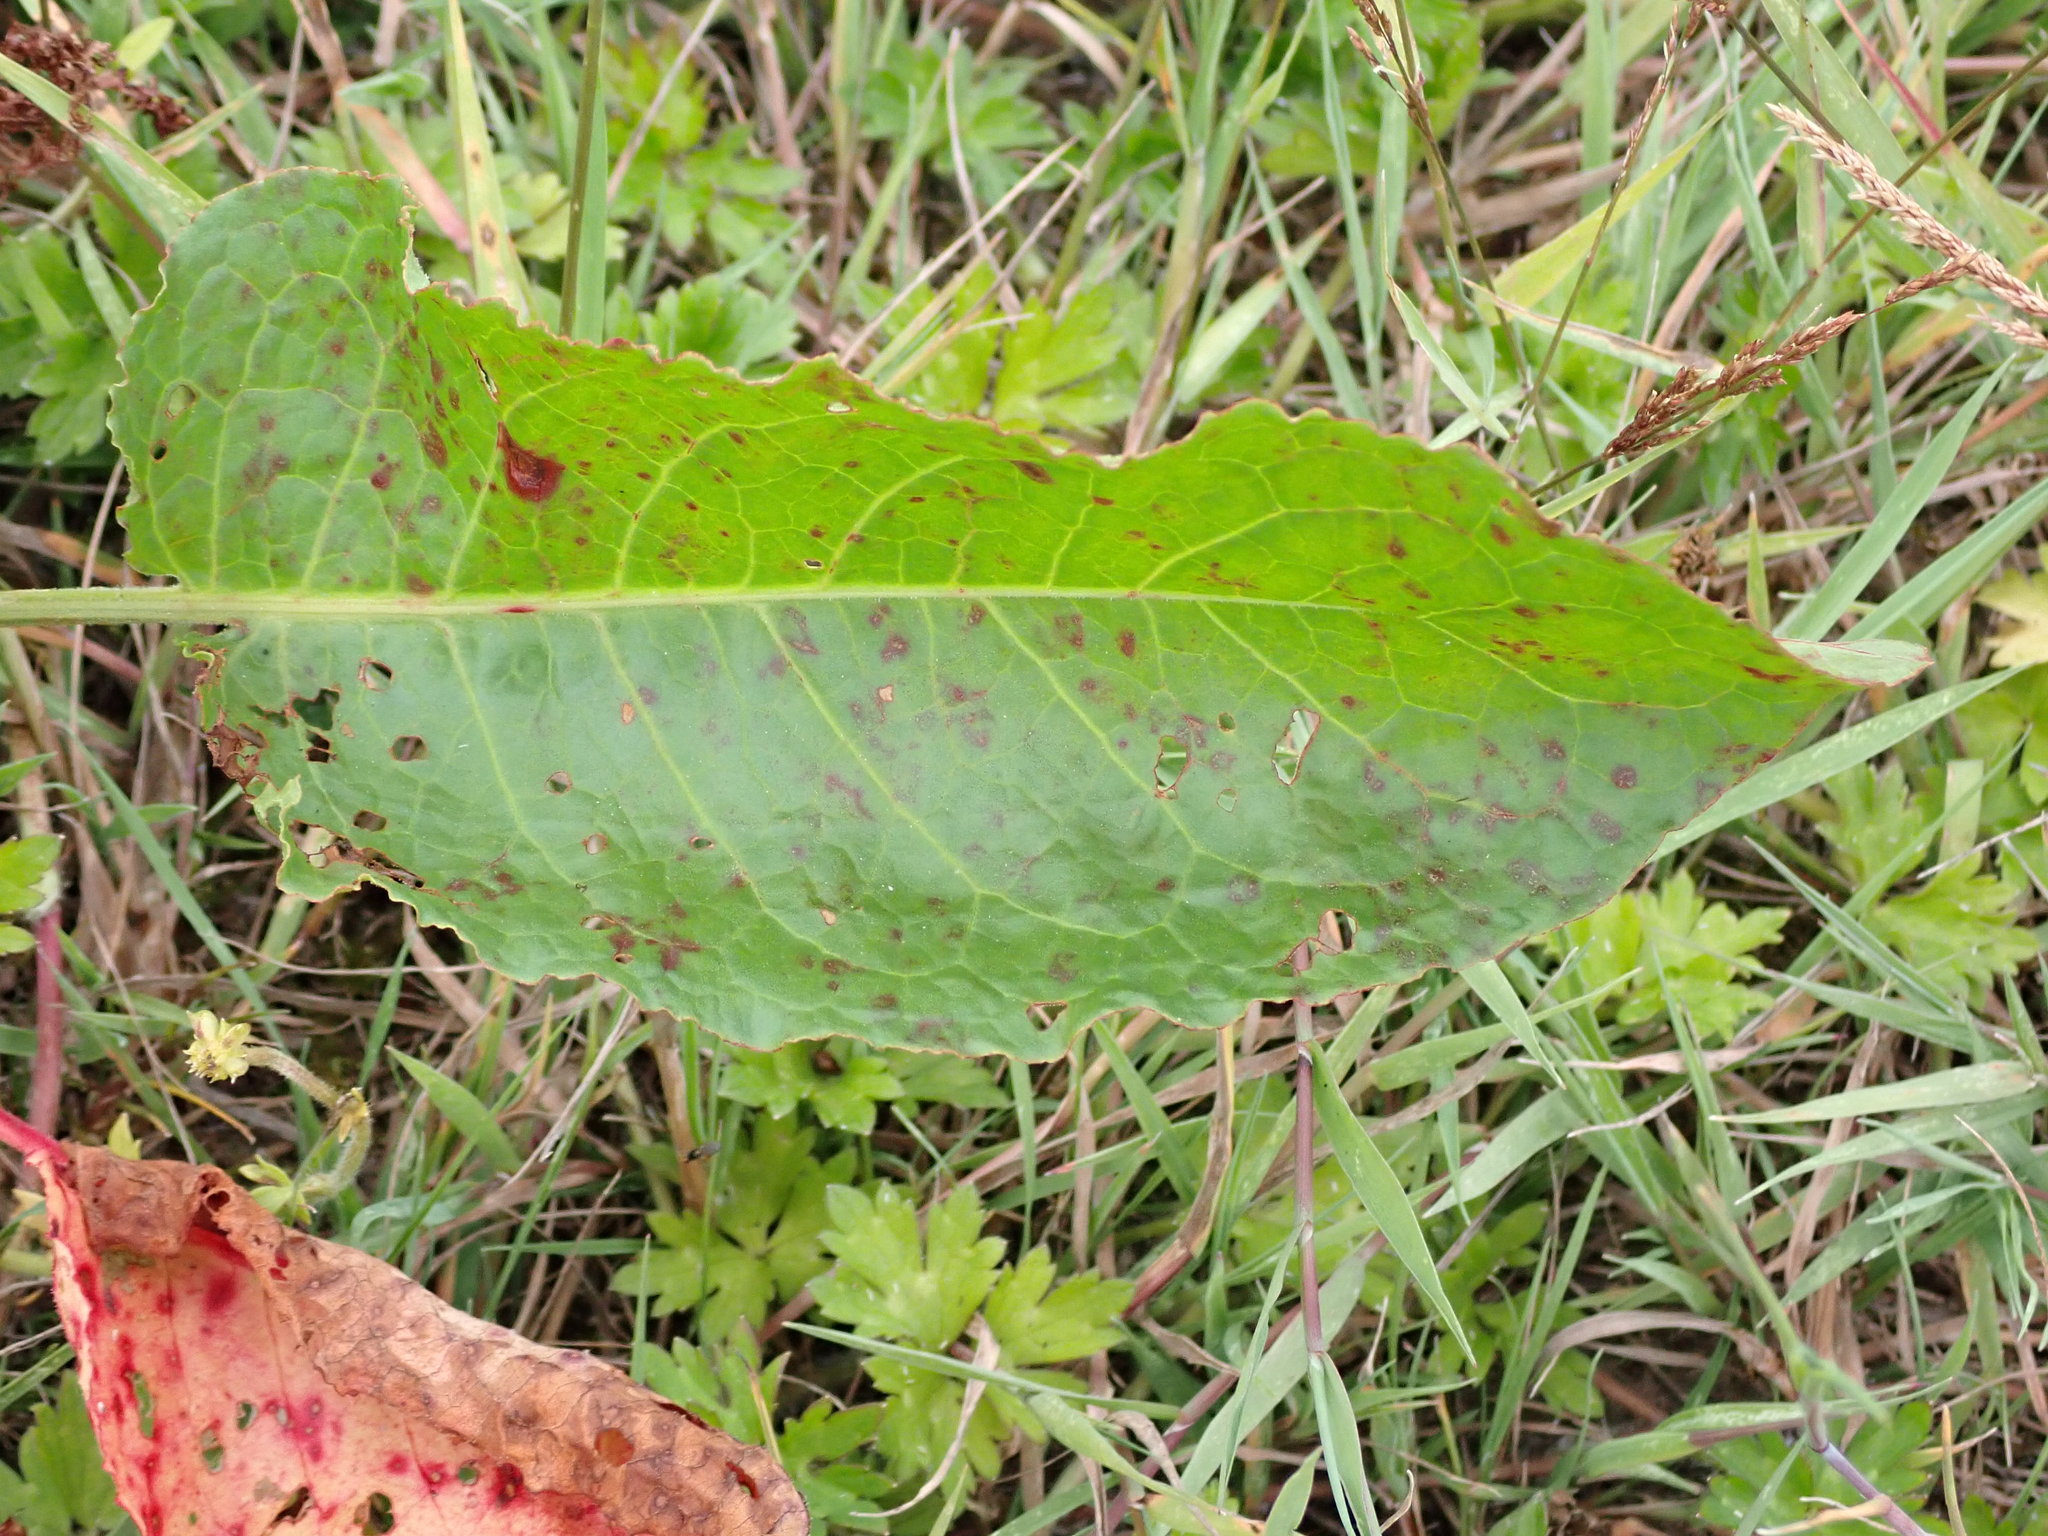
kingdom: Plantae
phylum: Tracheophyta
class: Magnoliopsida
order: Caryophyllales
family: Polygonaceae
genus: Rumex
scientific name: Rumex obtusifolius
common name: Bitter dock
